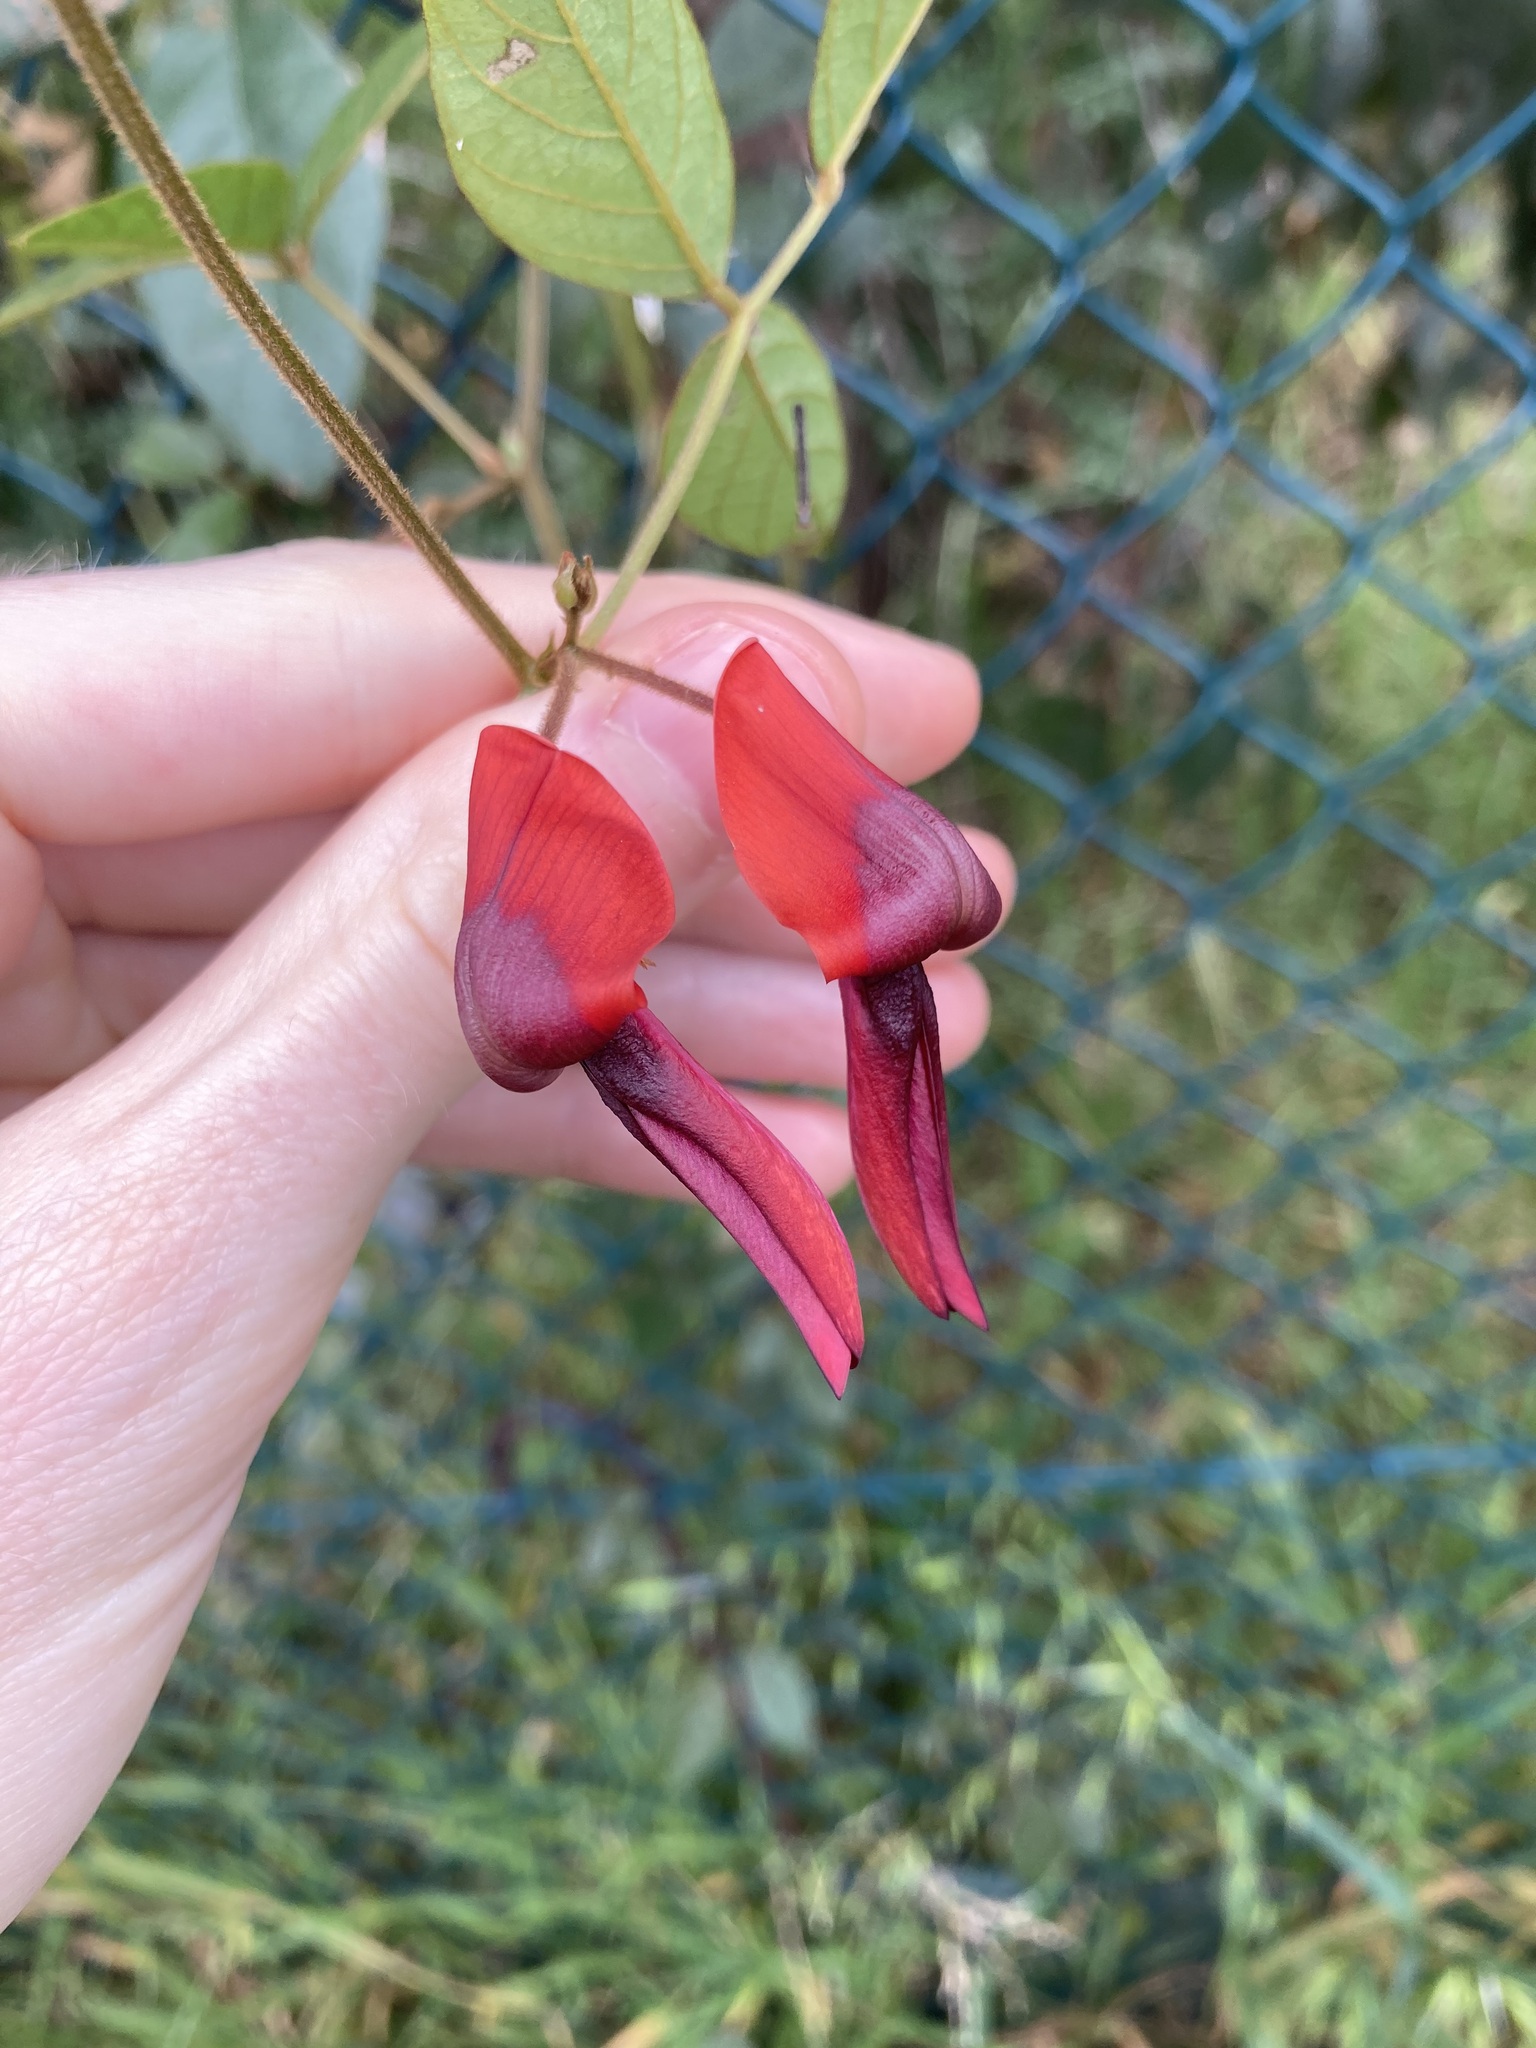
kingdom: Plantae
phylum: Tracheophyta
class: Magnoliopsida
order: Fabales
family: Fabaceae
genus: Kennedia
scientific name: Kennedia rubicunda
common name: Red kennedy-pea
